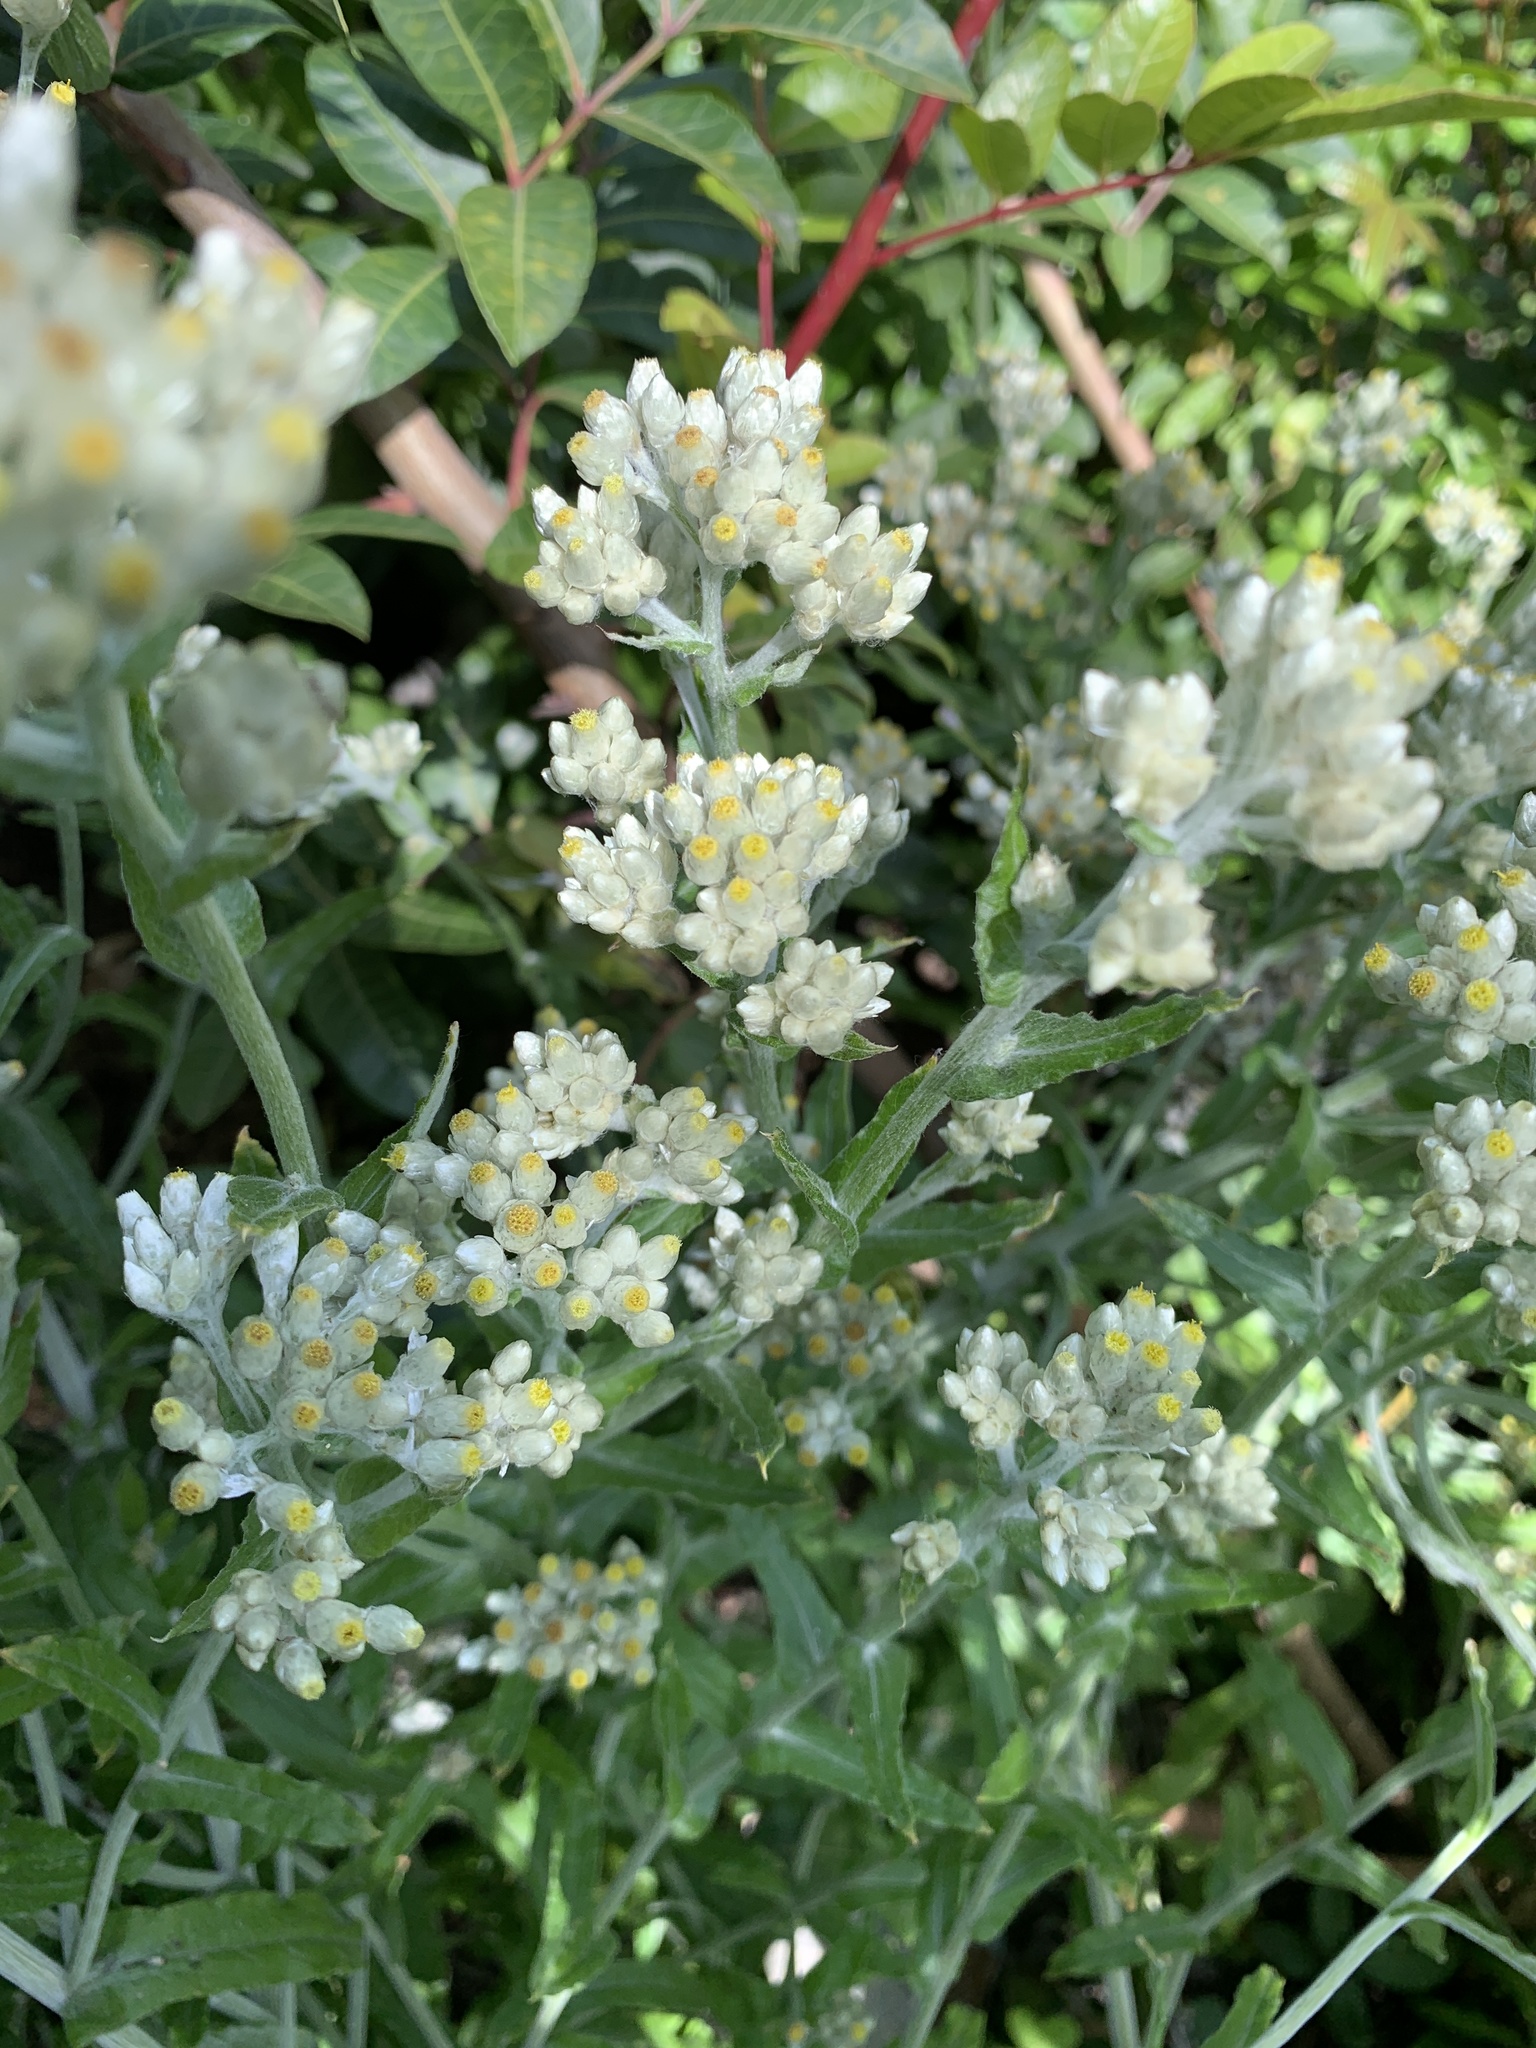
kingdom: Plantae
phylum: Tracheophyta
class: Magnoliopsida
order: Asterales
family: Asteraceae
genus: Pseudognaphalium
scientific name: Pseudognaphalium biolettii
